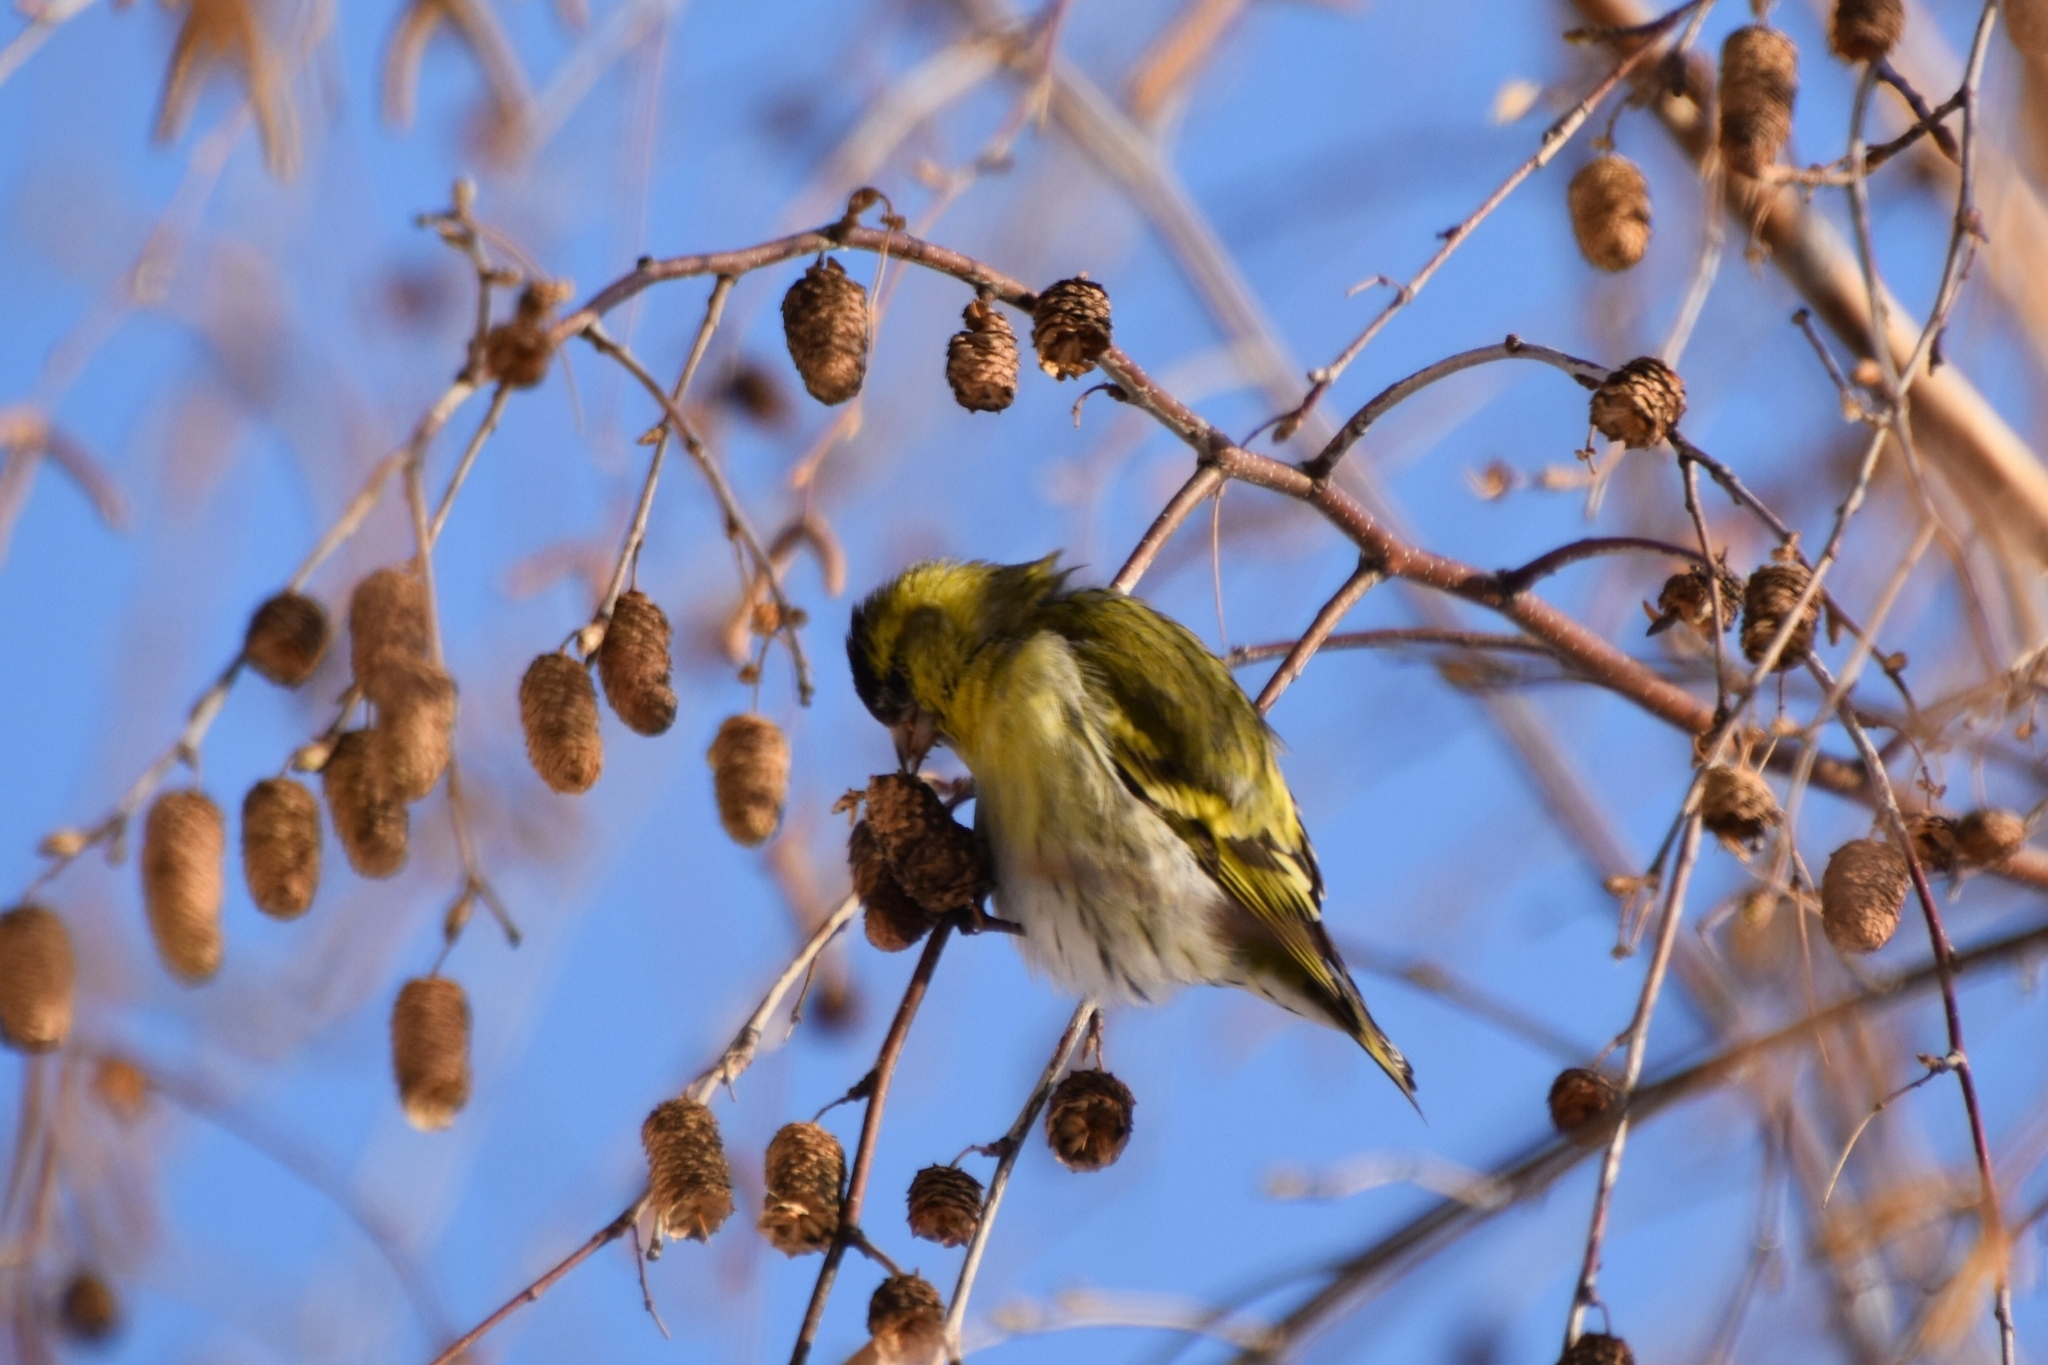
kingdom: Animalia
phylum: Chordata
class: Aves
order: Passeriformes
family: Fringillidae
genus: Spinus
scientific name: Spinus spinus
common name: Eurasian siskin
